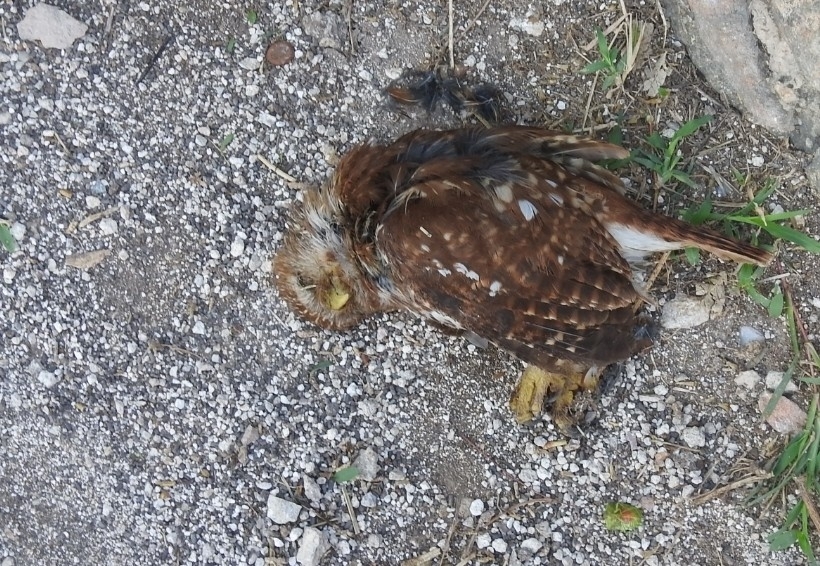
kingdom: Animalia
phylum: Chordata
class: Aves
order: Strigiformes
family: Strigidae
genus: Glaucidium
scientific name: Glaucidium brasilianum
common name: Ferruginous pygmy-owl
